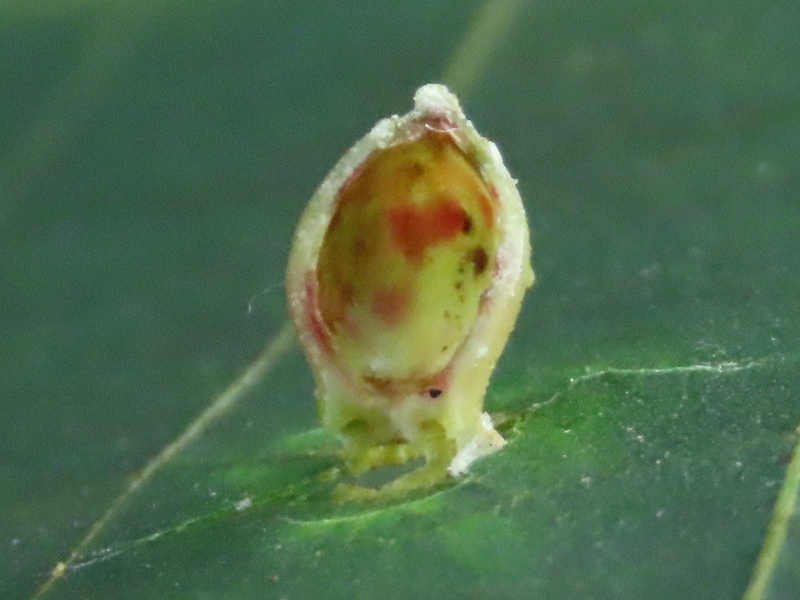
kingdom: Animalia
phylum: Arthropoda
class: Insecta
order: Diptera
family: Cecidomyiidae
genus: Caryomyia
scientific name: Caryomyia viscidolium
